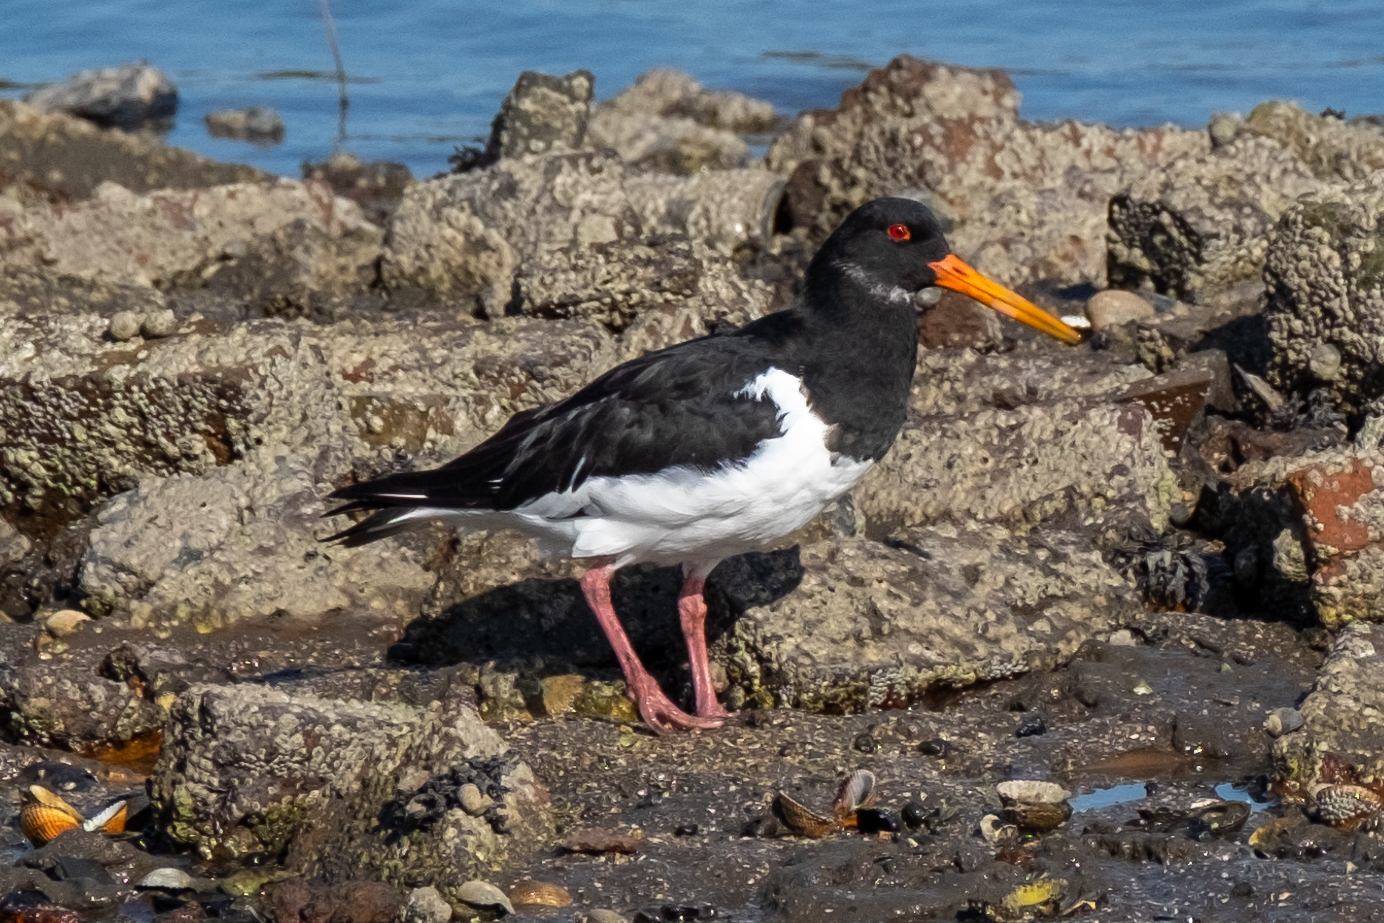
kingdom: Animalia
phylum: Chordata
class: Aves
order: Charadriiformes
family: Haematopodidae
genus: Haematopus
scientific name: Haematopus ostralegus
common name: Eurasian oystercatcher
